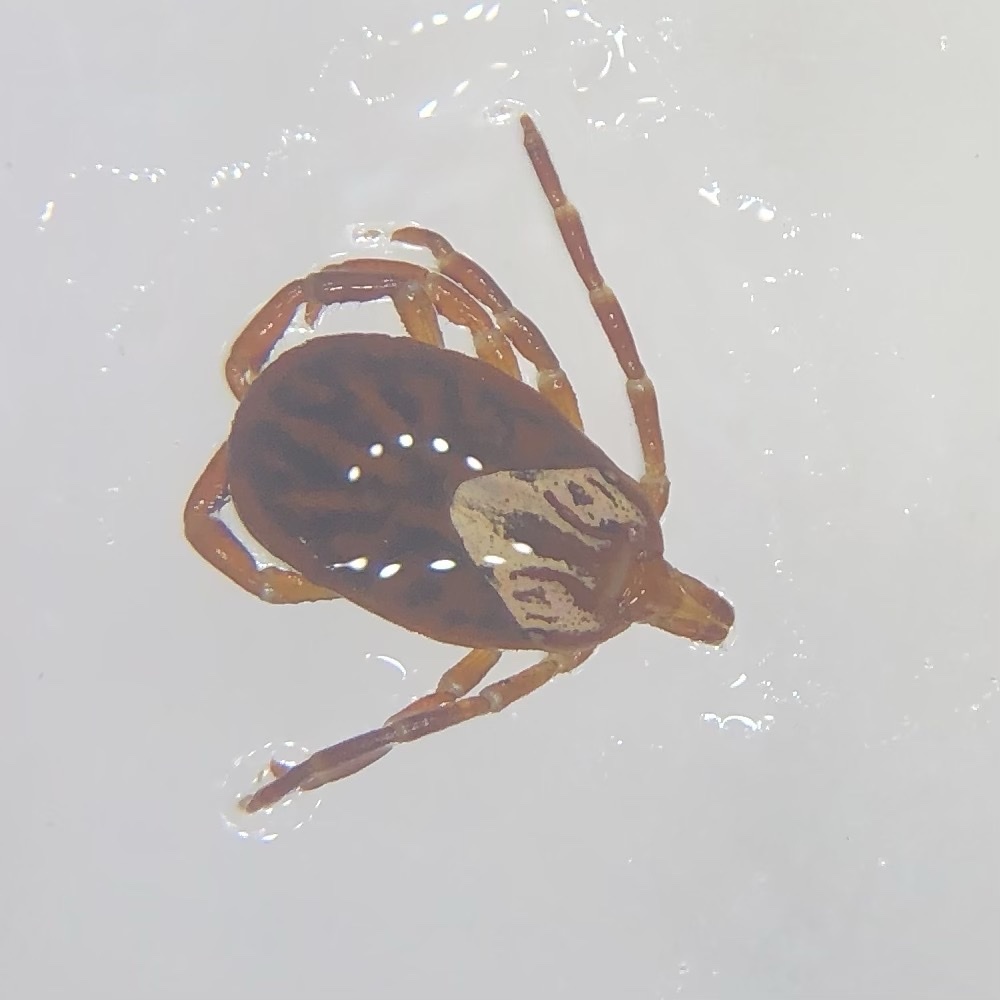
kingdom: Animalia
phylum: Arthropoda
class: Arachnida
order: Ixodida
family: Ixodidae
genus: Amblyomma
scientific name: Amblyomma maculatum
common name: Gulf coast tick
